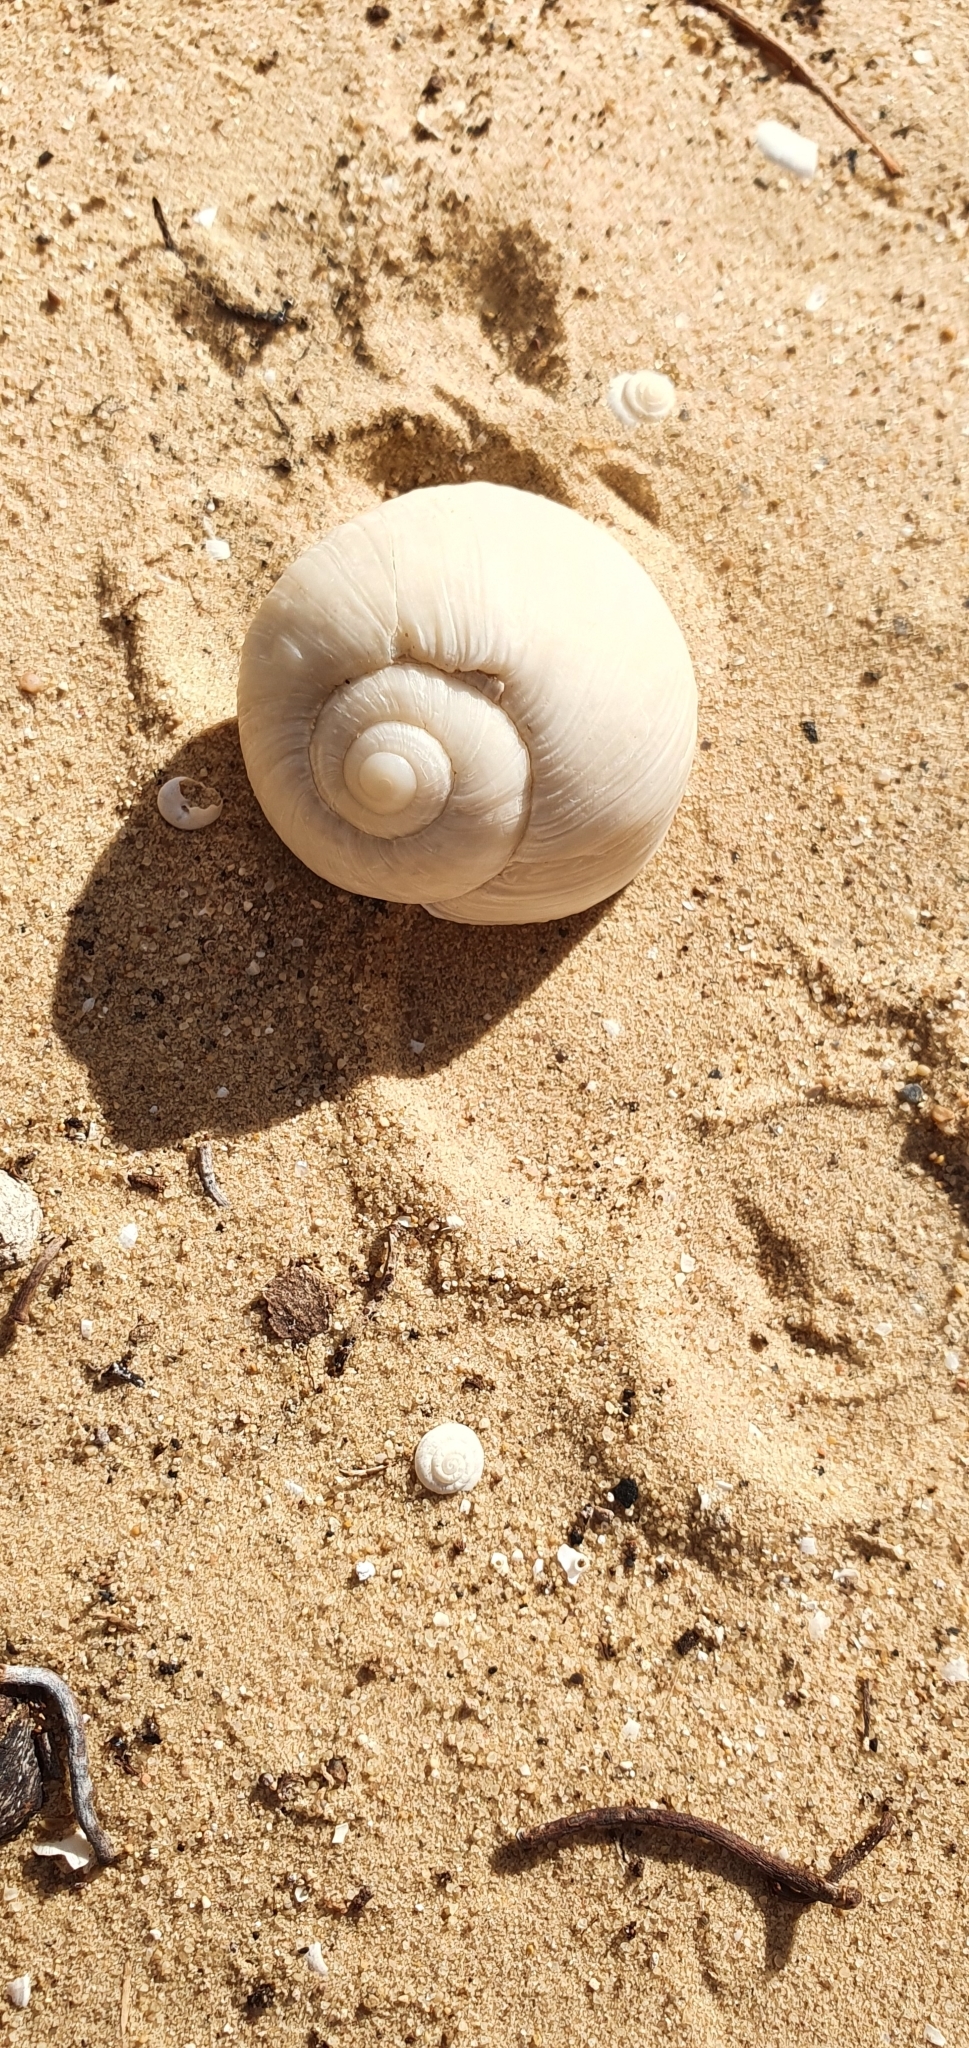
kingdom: Animalia
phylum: Mollusca
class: Gastropoda
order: Stylommatophora
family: Helicidae
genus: Helix
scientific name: Helix melanostoma
